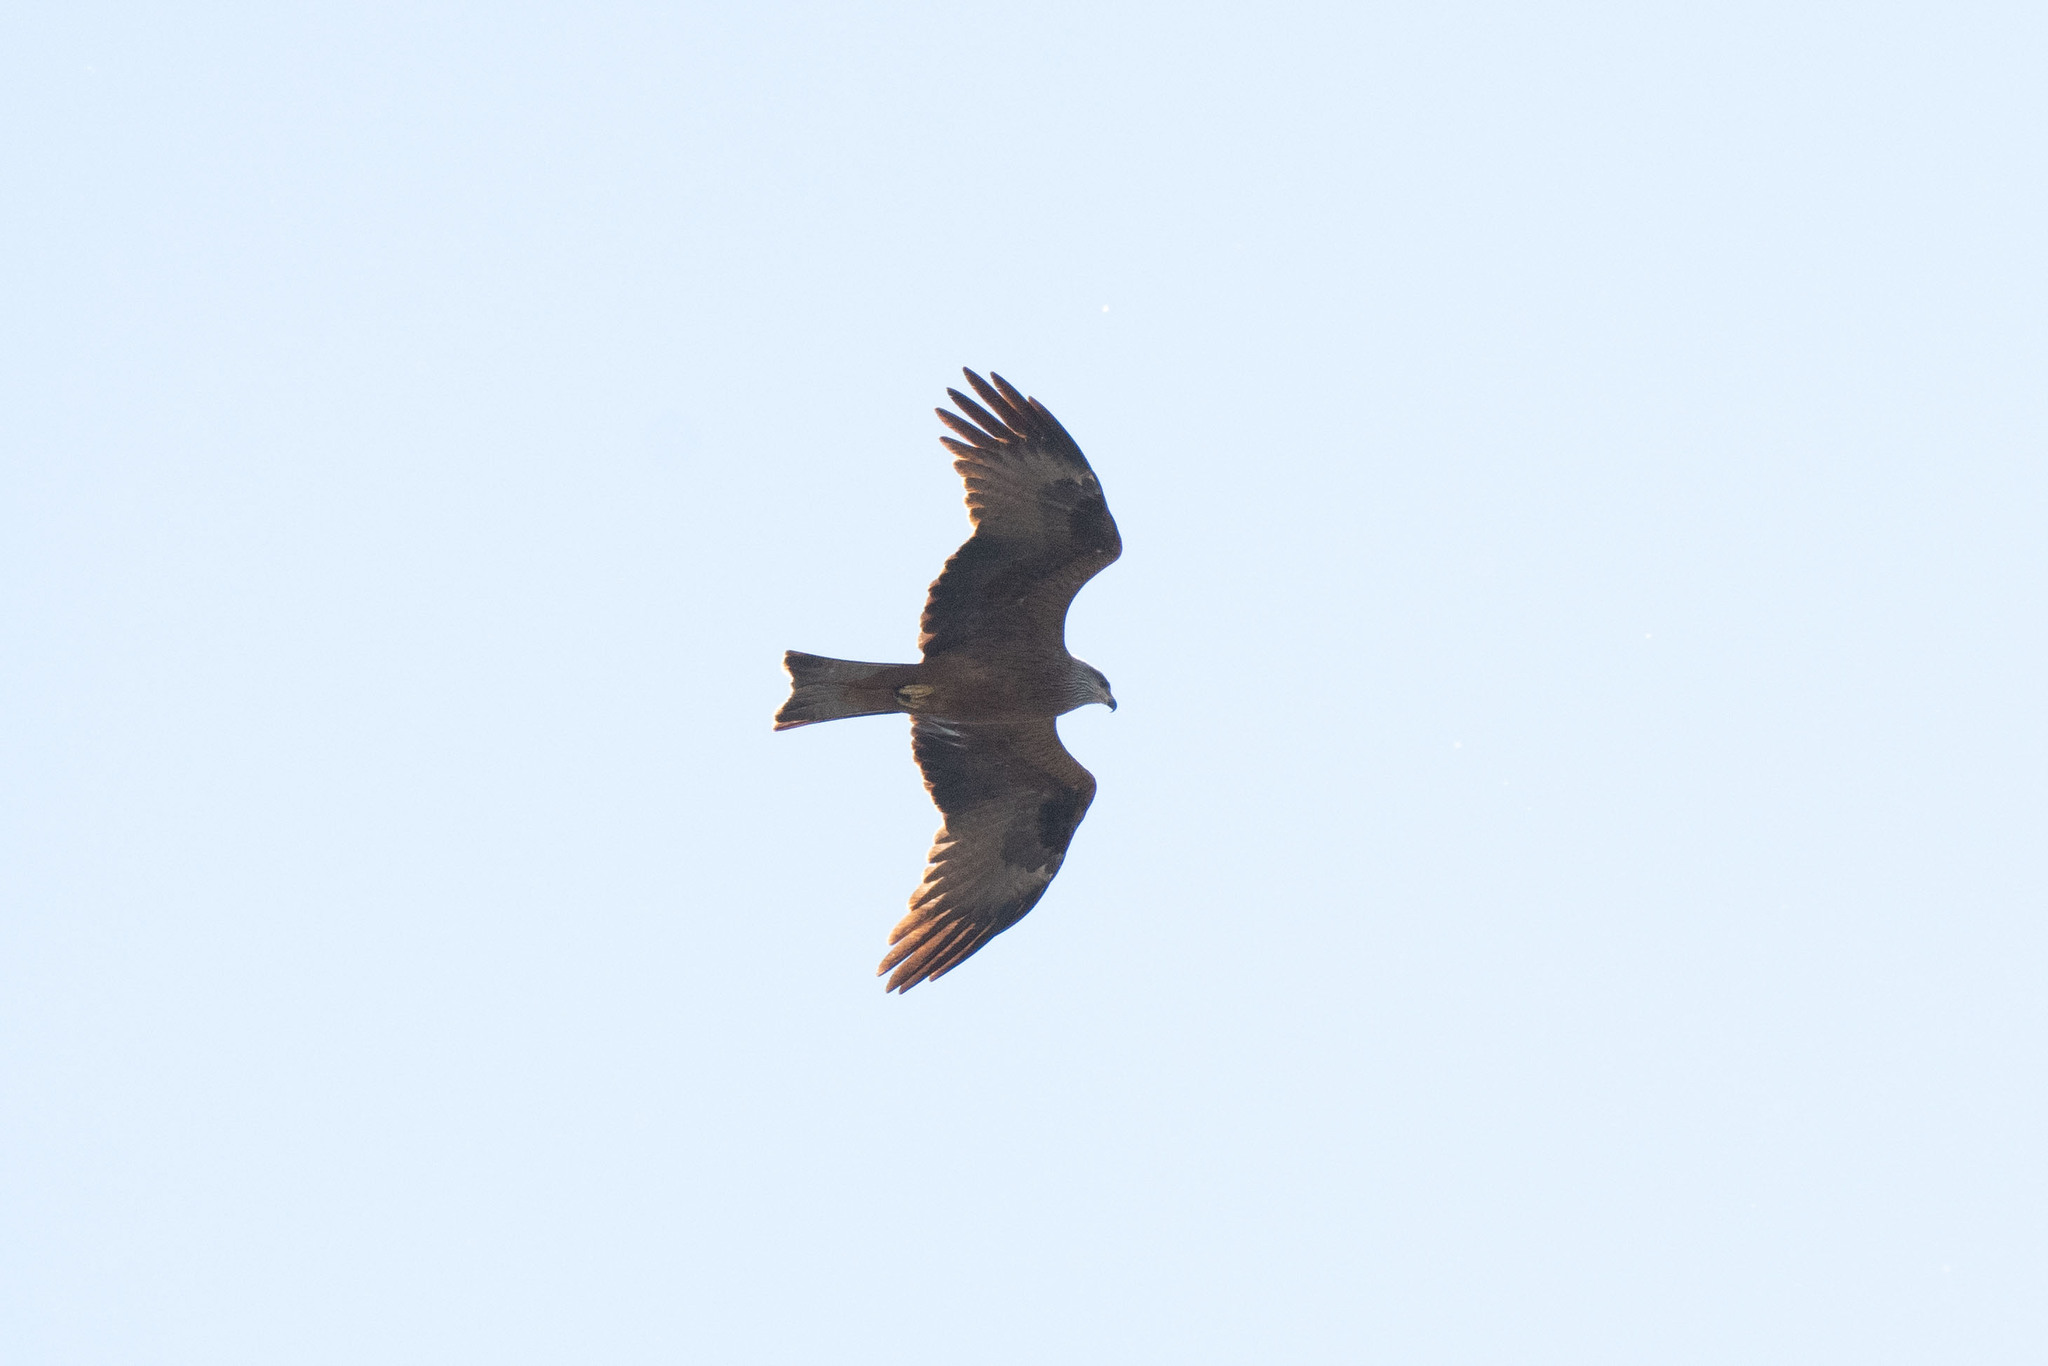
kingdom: Animalia
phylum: Chordata
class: Aves
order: Accipitriformes
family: Accipitridae
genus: Milvus
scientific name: Milvus milvus
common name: Red kite
